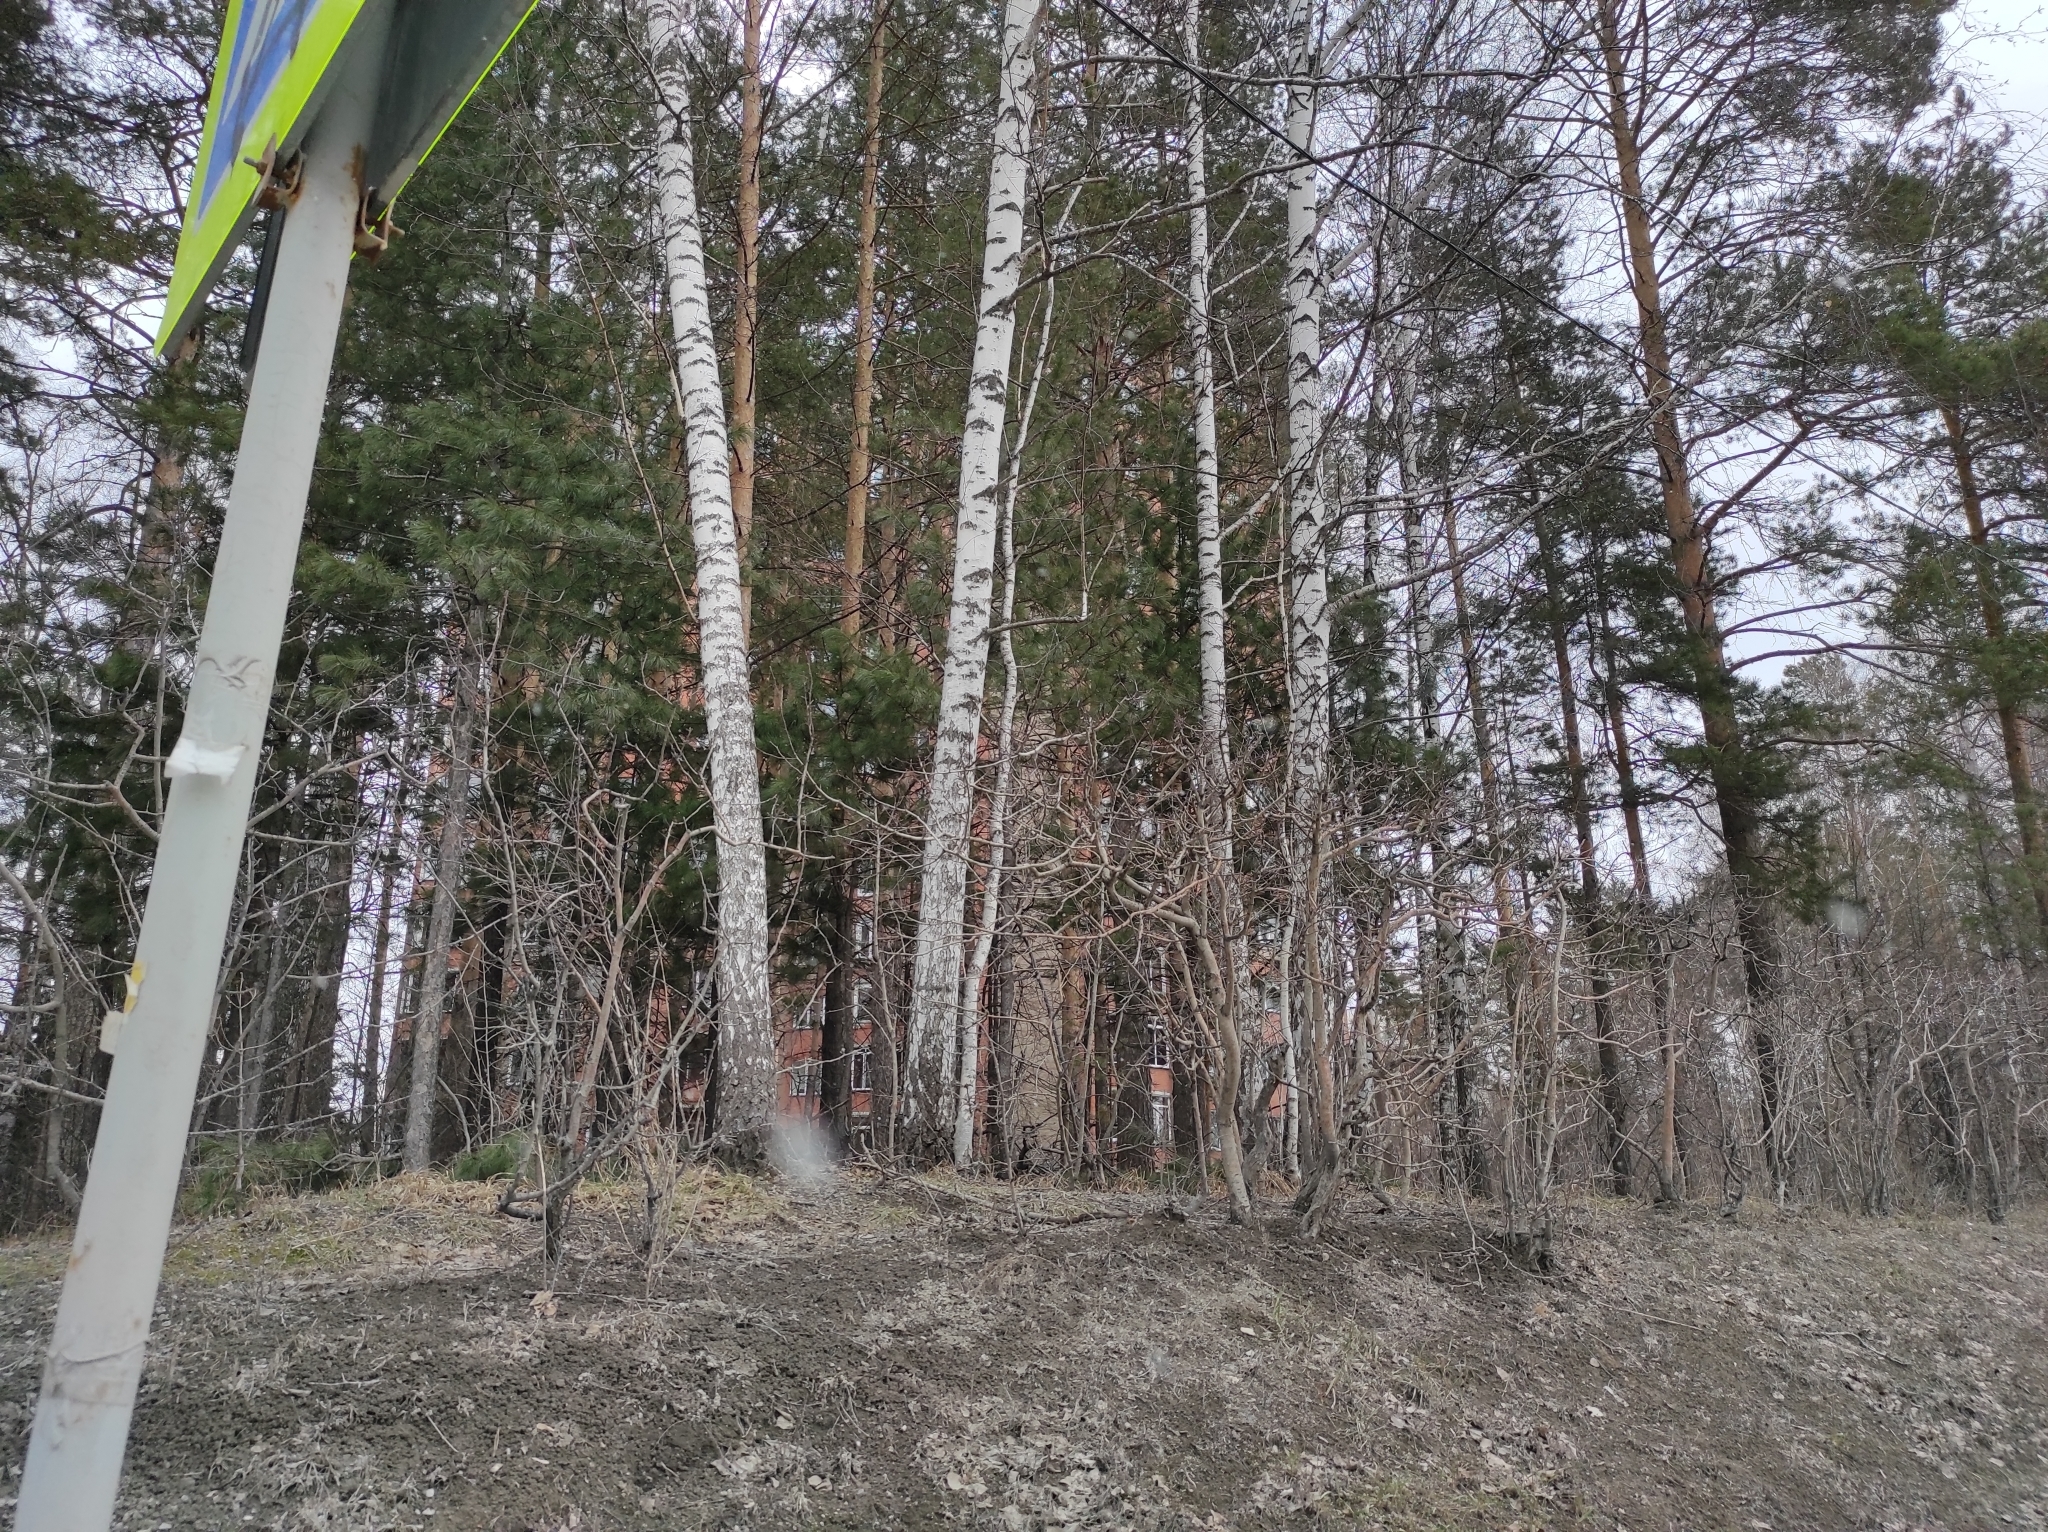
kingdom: Plantae
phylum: Tracheophyta
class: Pinopsida
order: Pinales
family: Pinaceae
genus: Pinus
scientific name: Pinus sylvestris
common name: Scots pine
